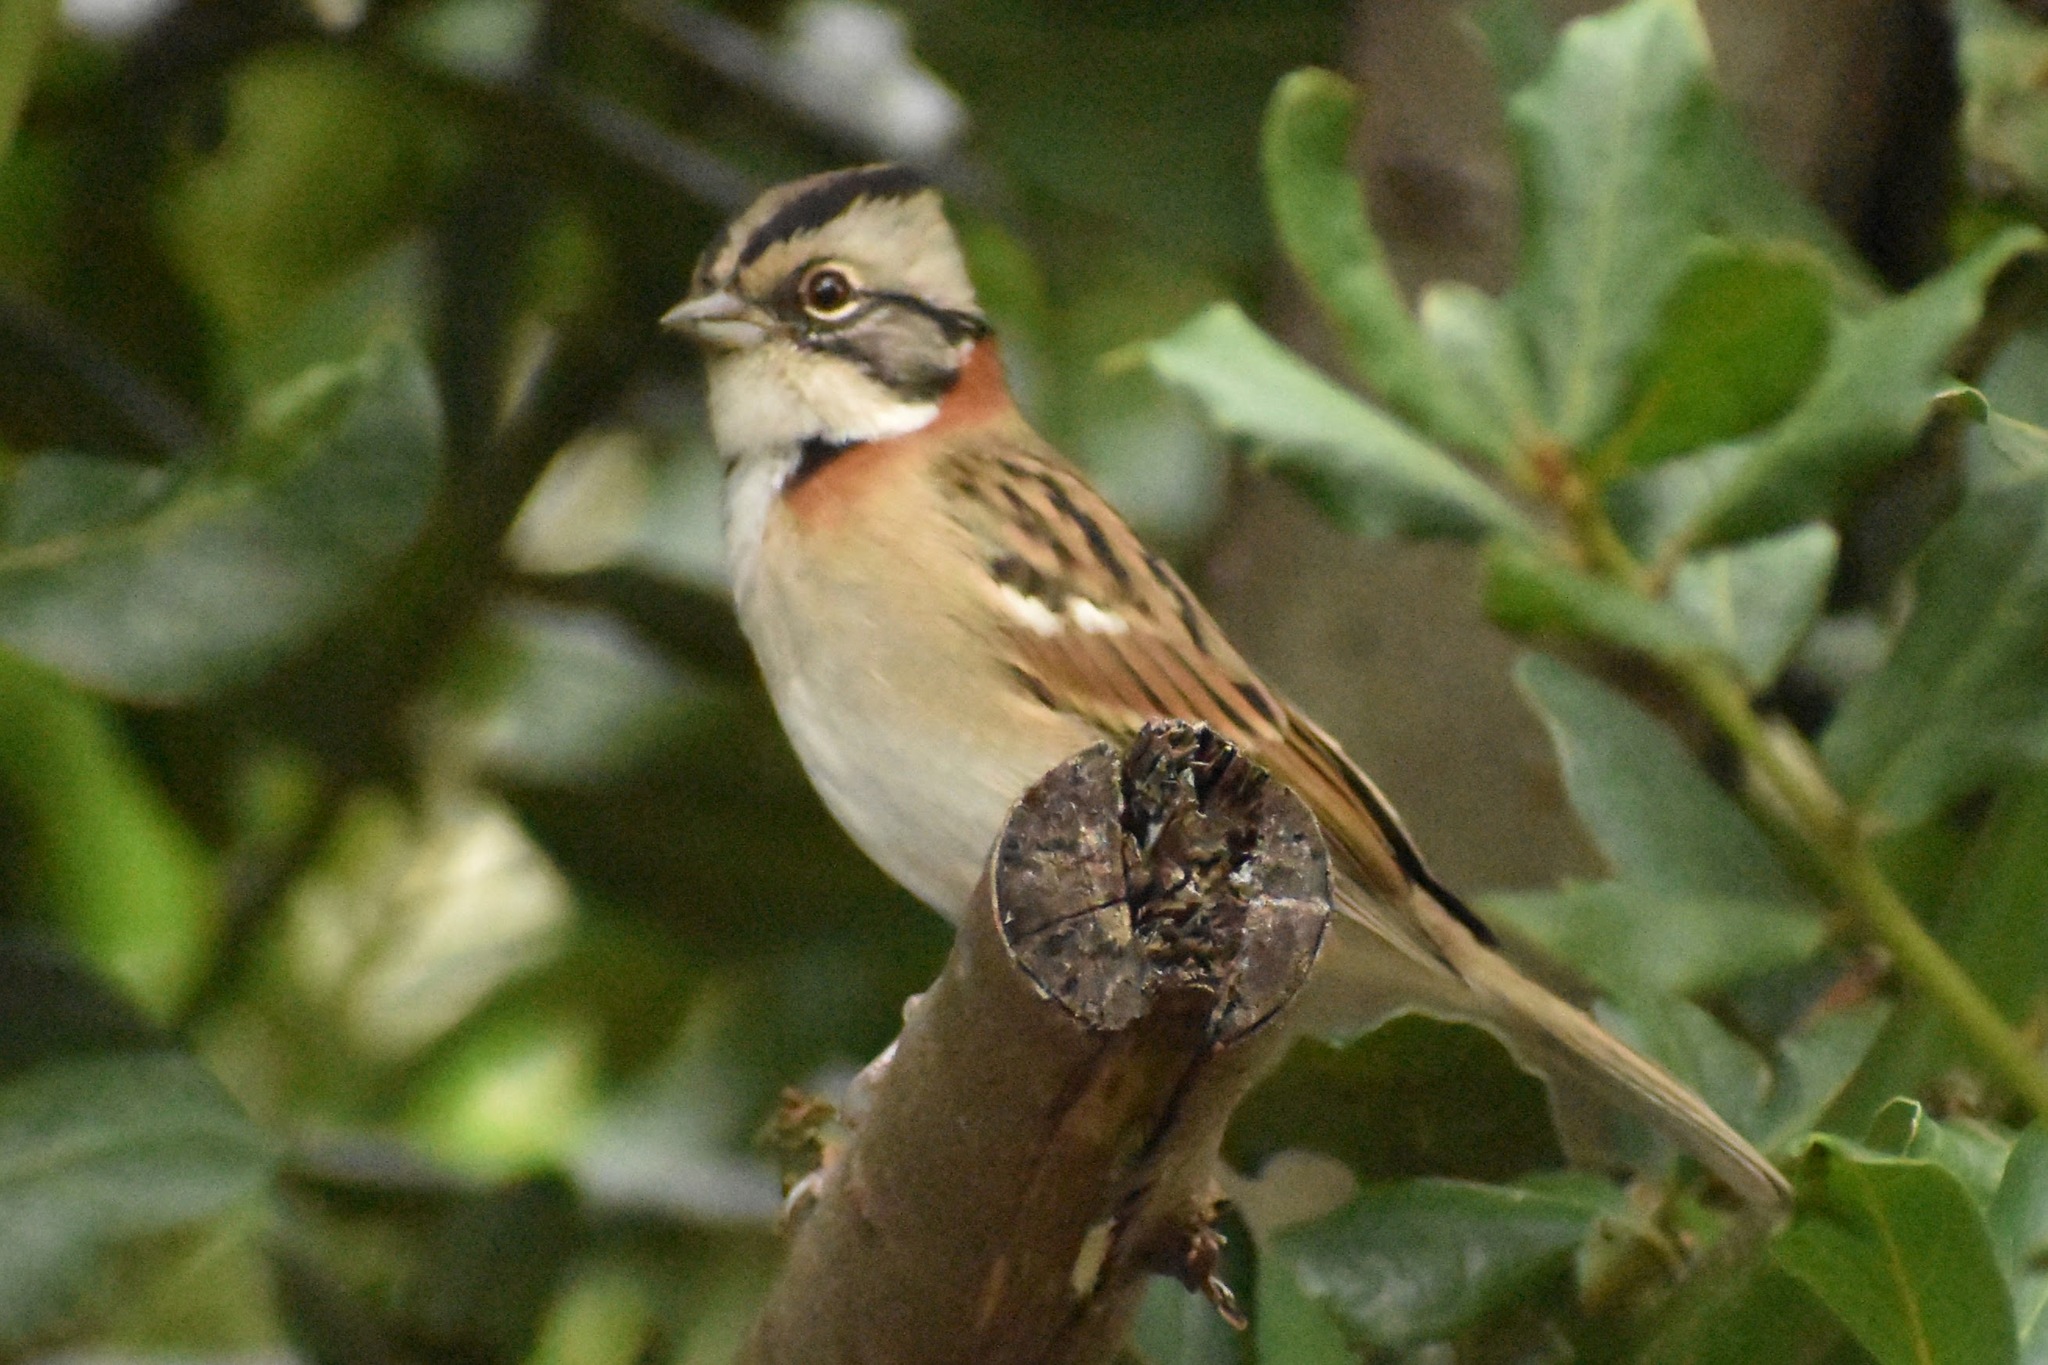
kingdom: Animalia
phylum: Chordata
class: Aves
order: Passeriformes
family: Passerellidae
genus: Zonotrichia
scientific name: Zonotrichia capensis
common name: Rufous-collared sparrow
